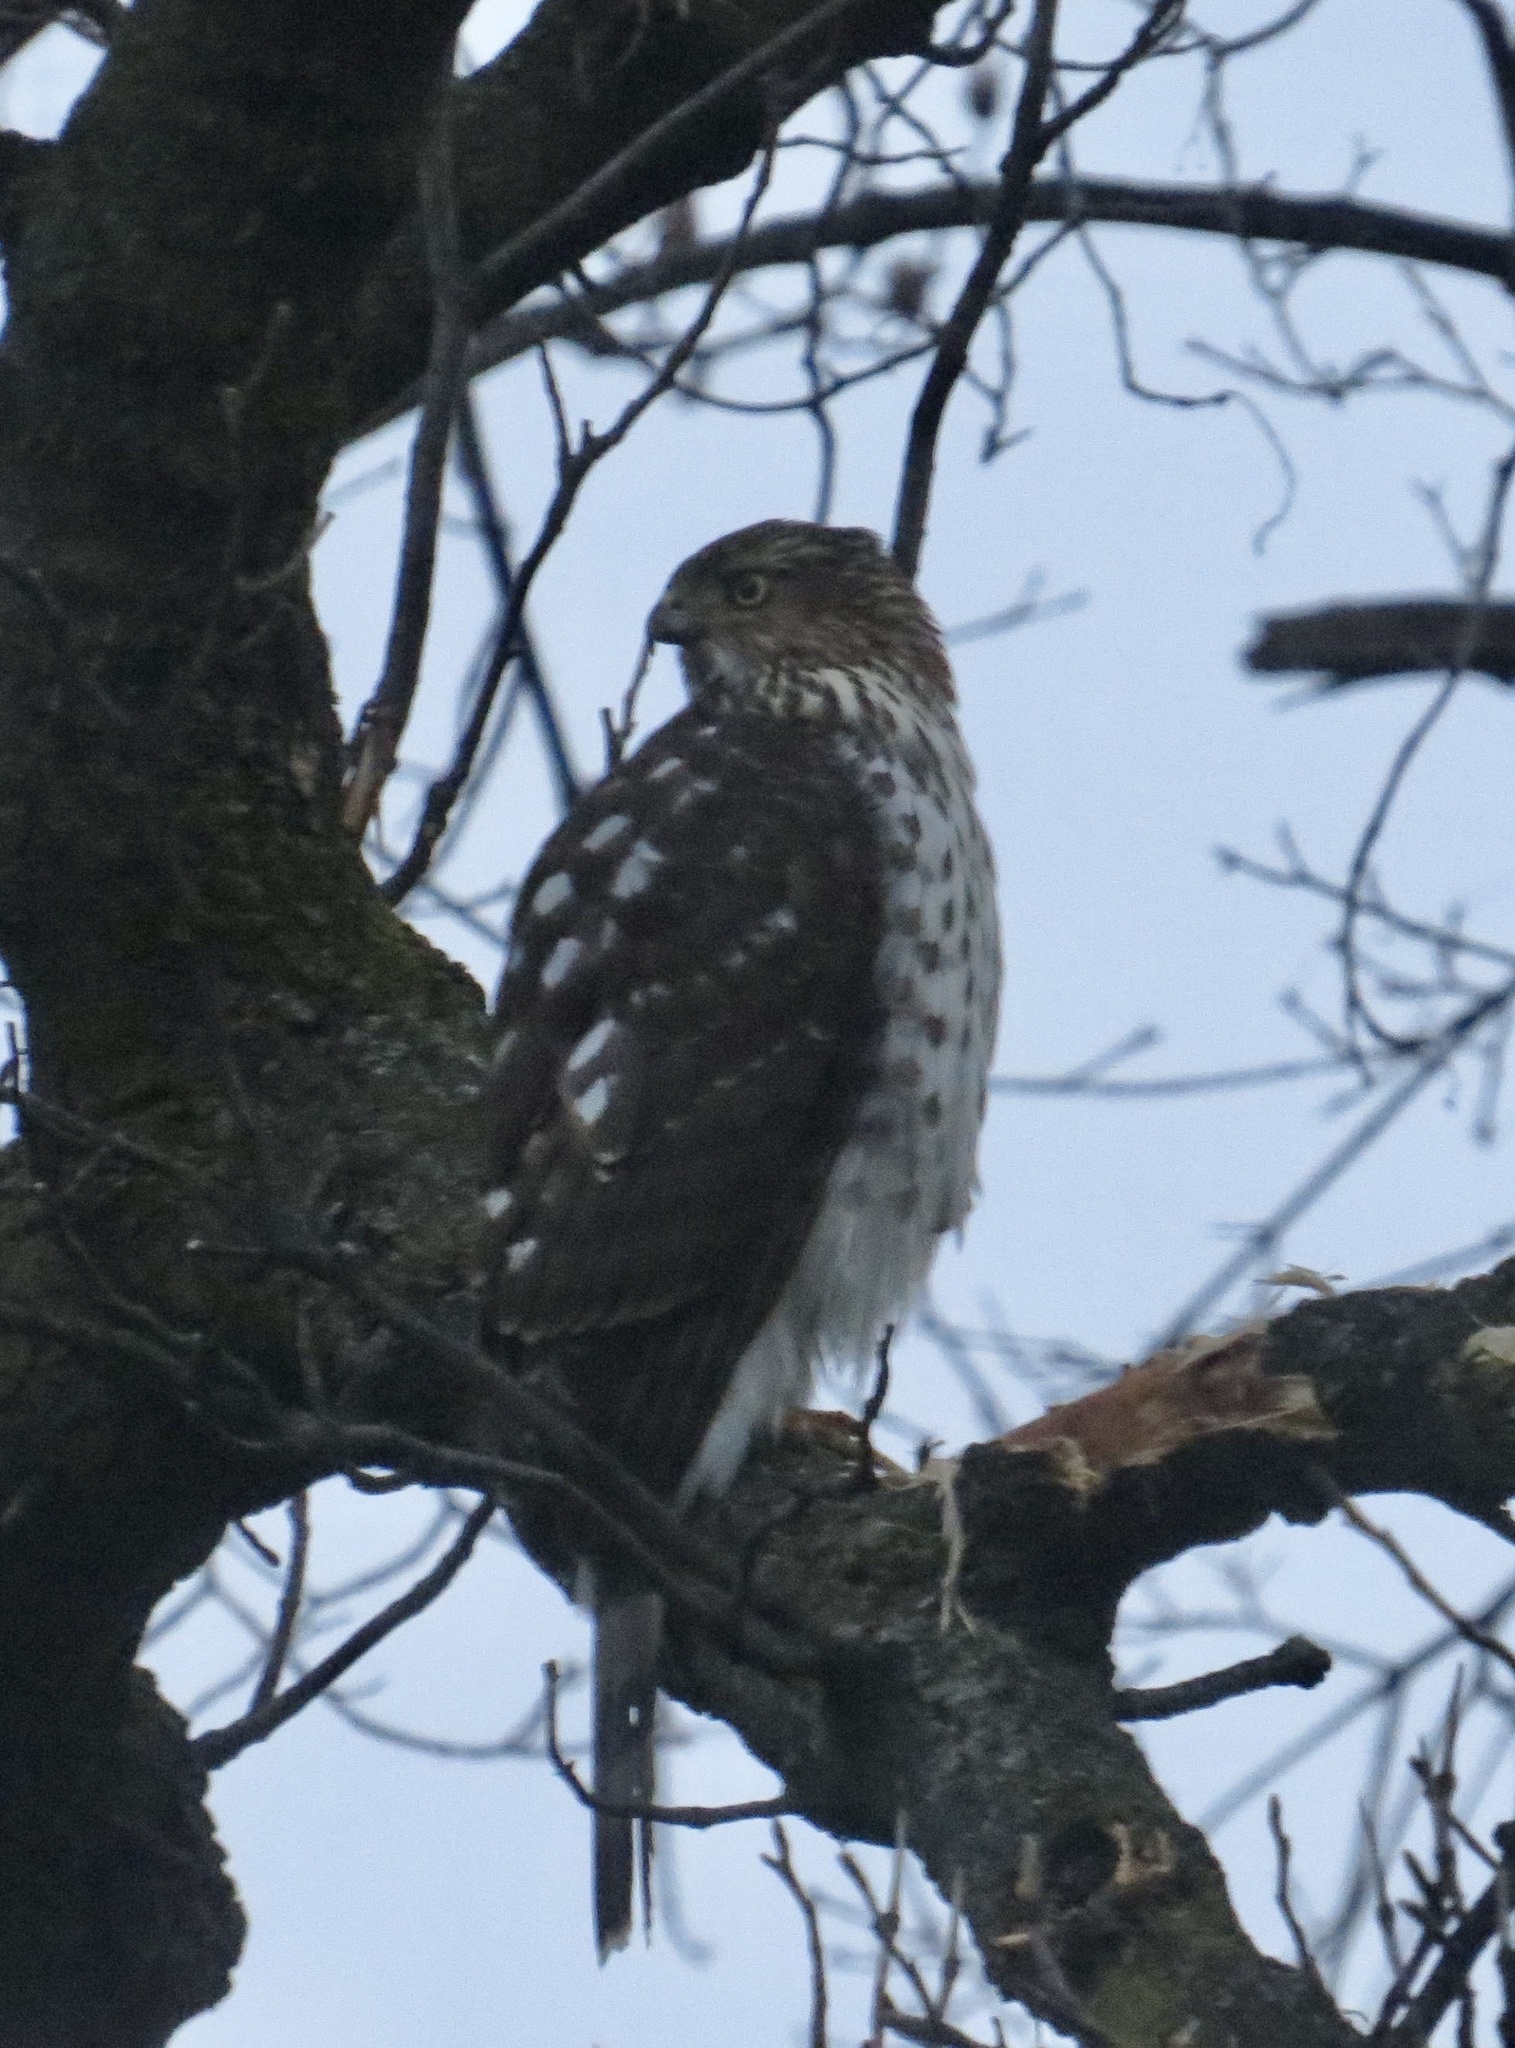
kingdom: Animalia
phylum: Chordata
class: Aves
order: Accipitriformes
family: Accipitridae
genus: Accipiter
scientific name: Accipiter cooperii
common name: Cooper's hawk
